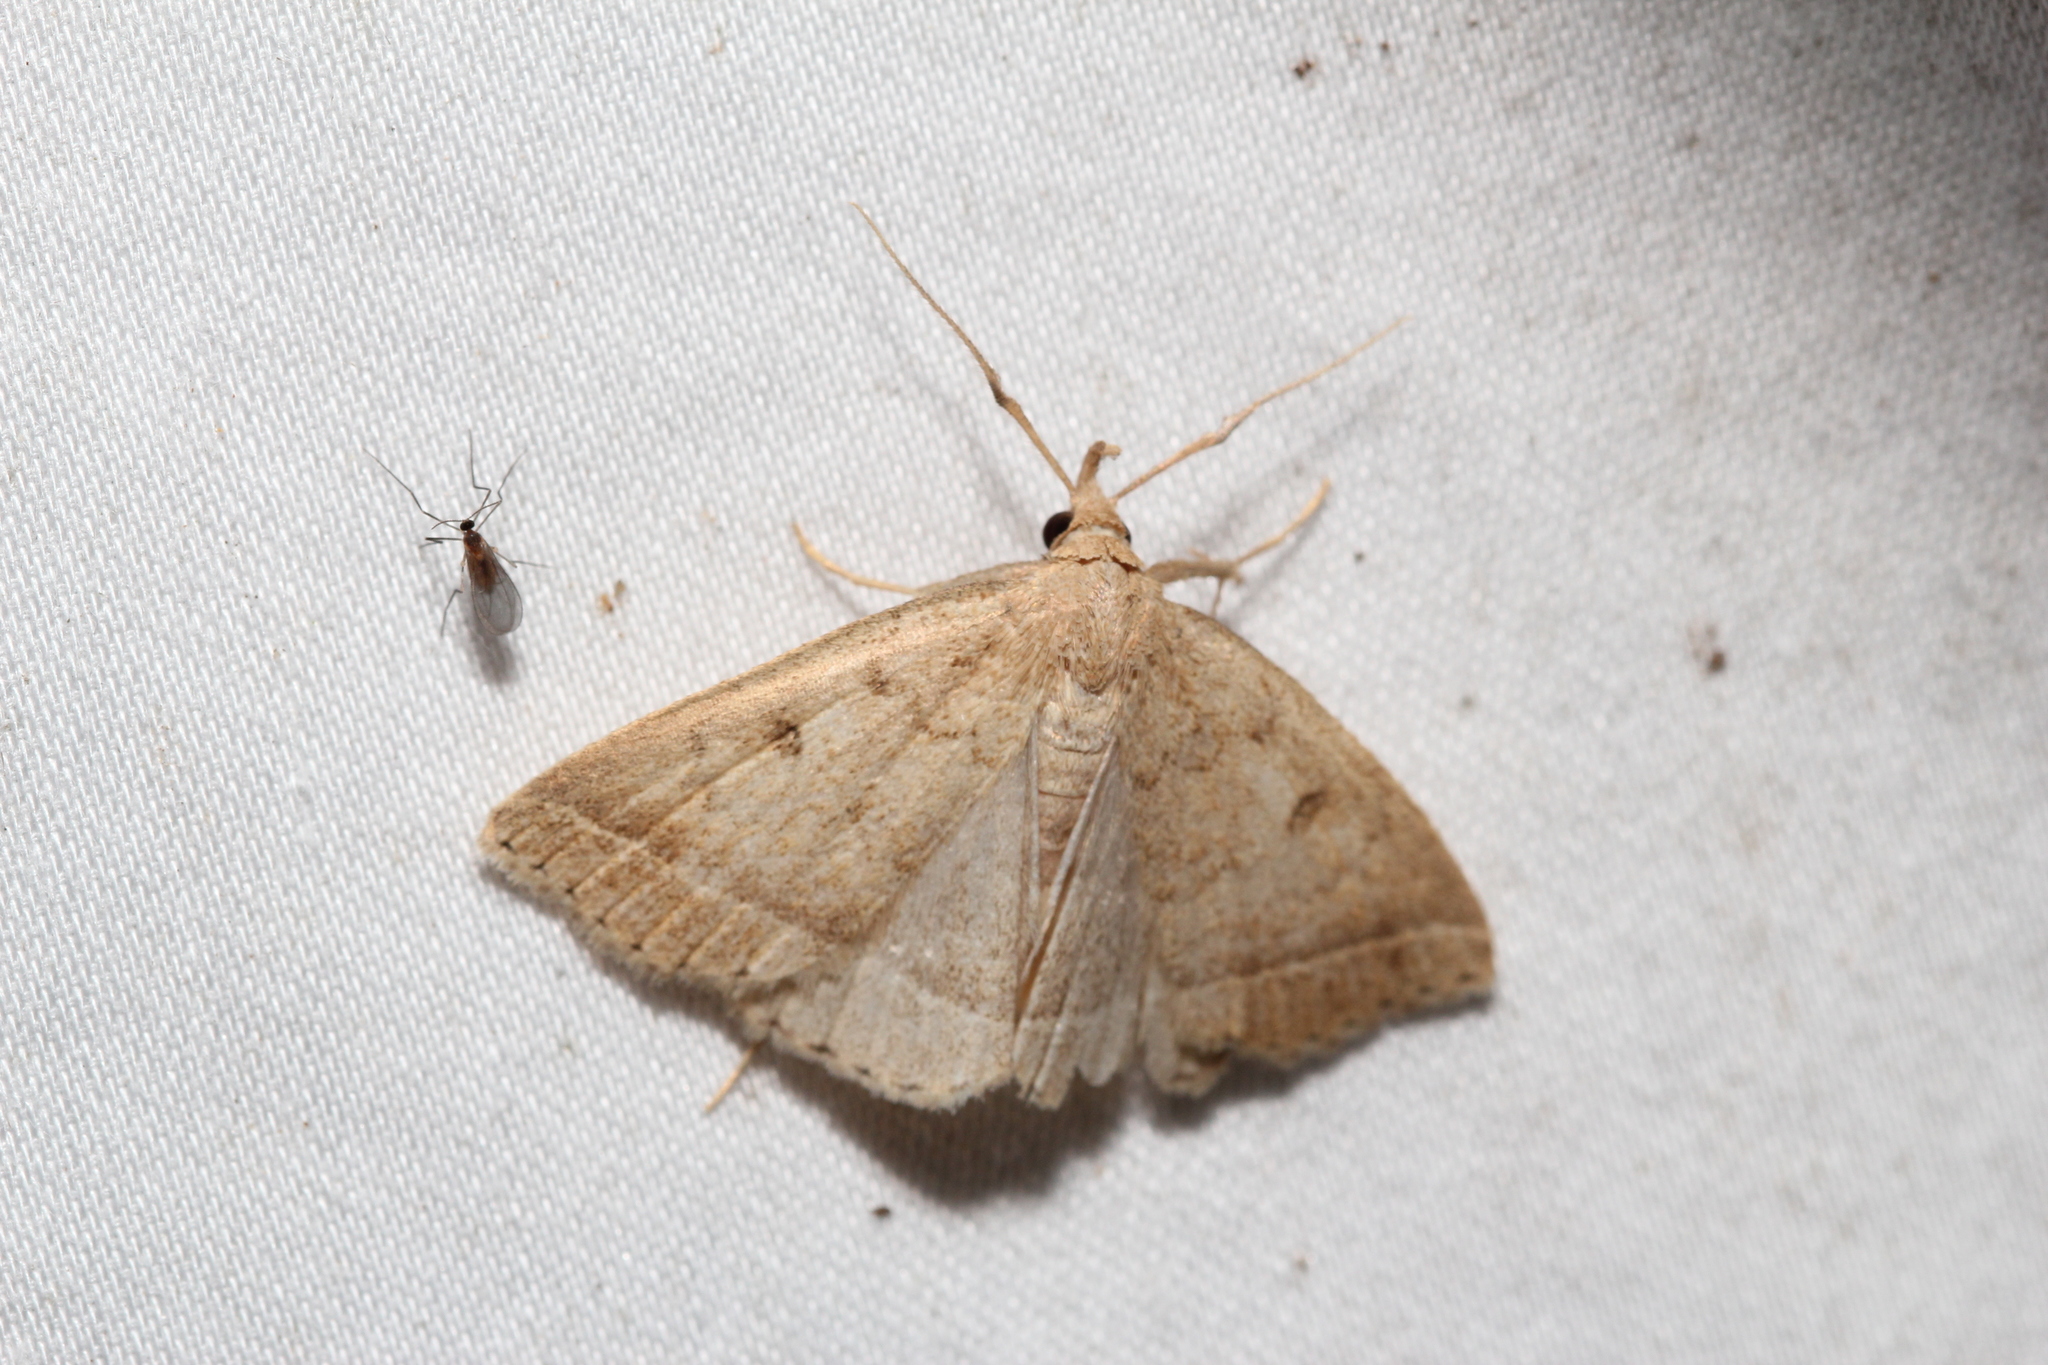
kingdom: Animalia
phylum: Arthropoda
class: Insecta
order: Lepidoptera
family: Erebidae
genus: Zanclognatha
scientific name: Zanclognatha jacchusalis
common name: Yellowish zanclognatha
